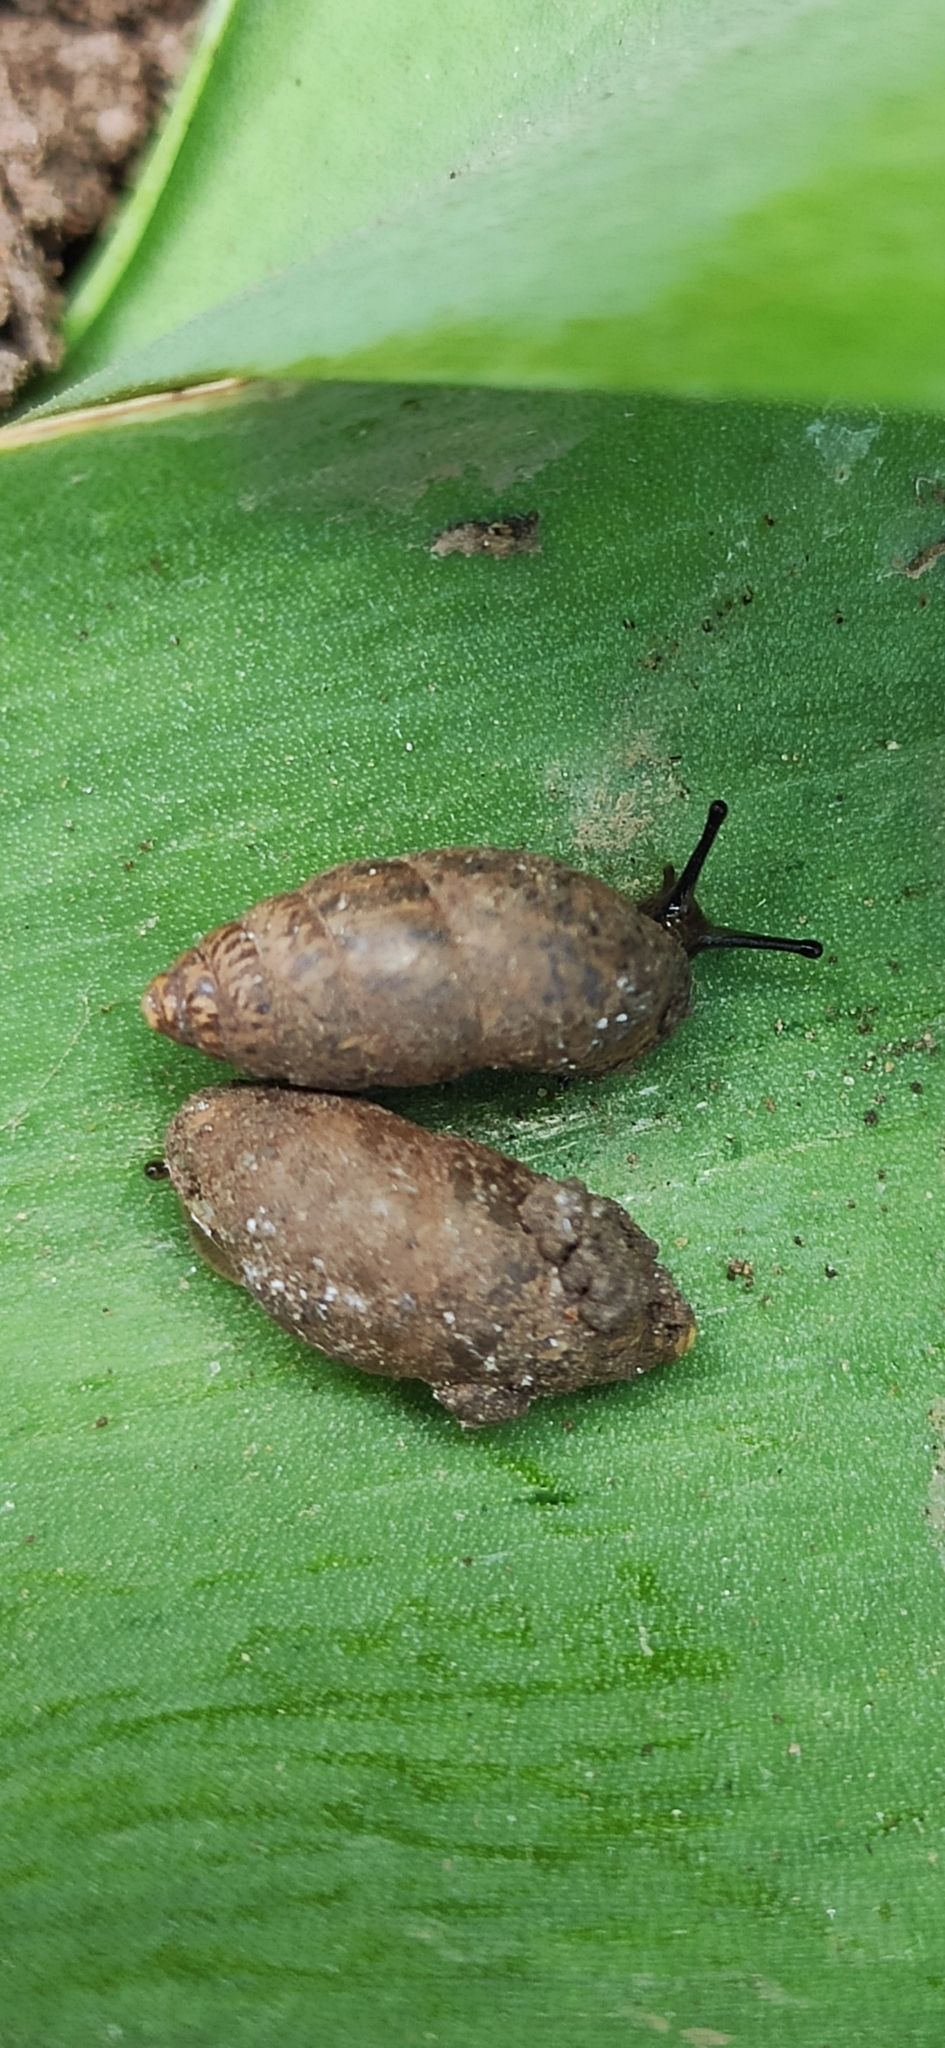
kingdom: Animalia
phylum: Mollusca
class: Gastropoda
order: Stylommatophora
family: Enidae
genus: Chondrula
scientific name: Chondrula tridens
